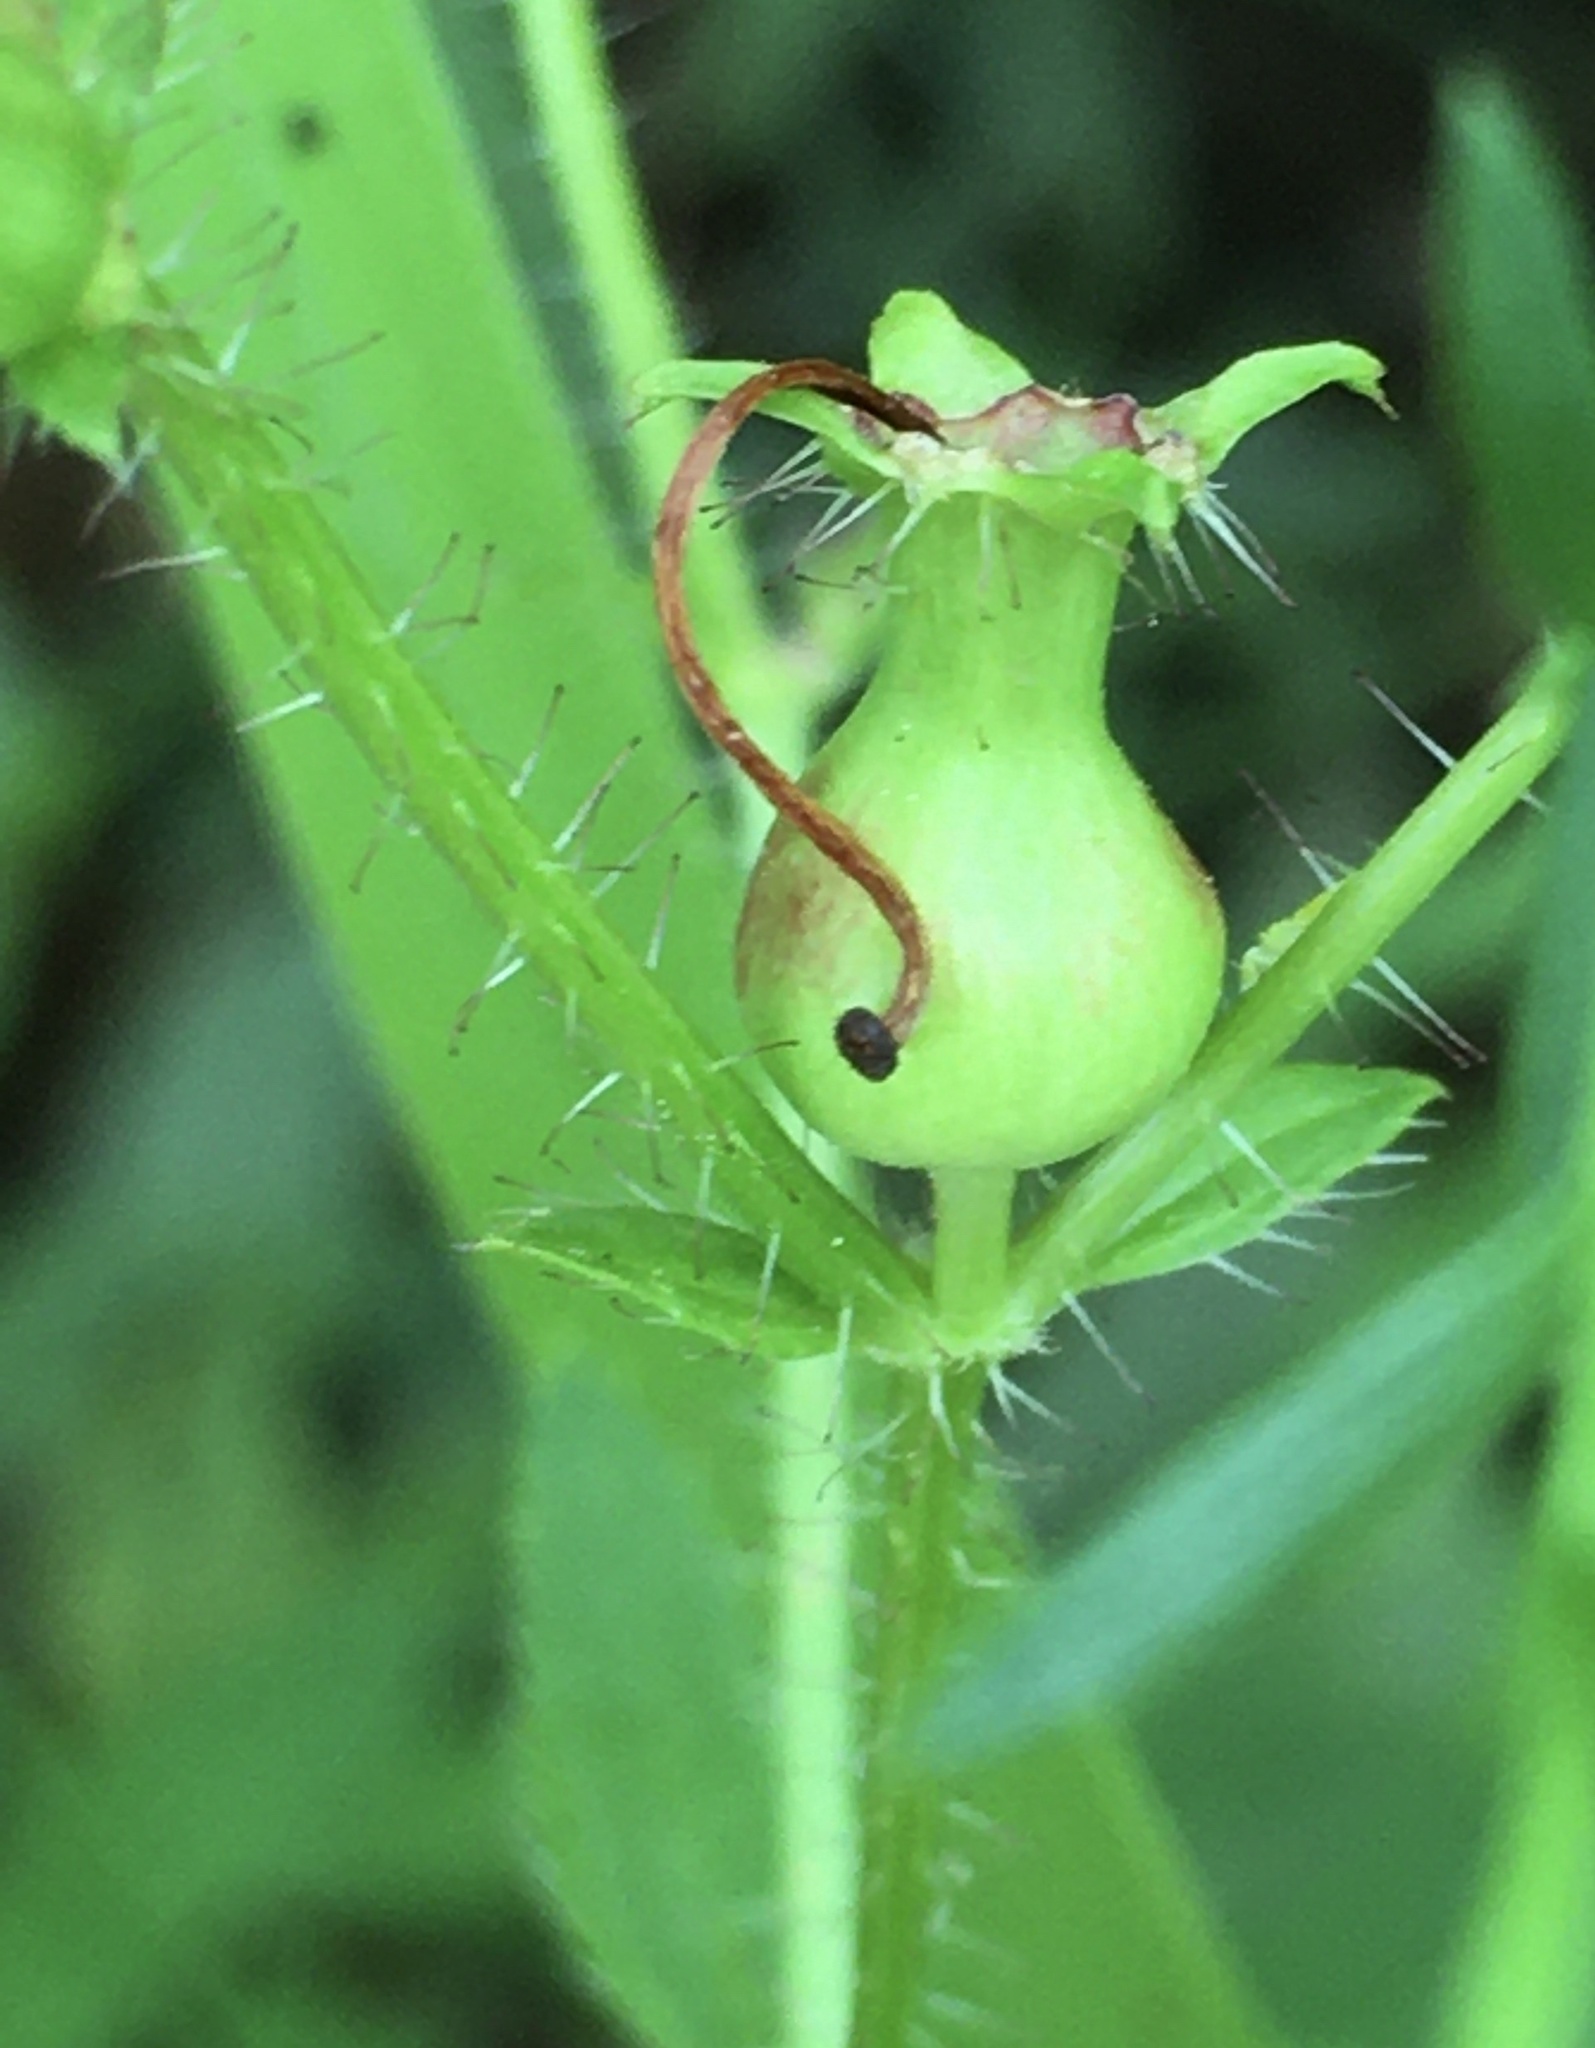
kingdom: Plantae
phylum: Tracheophyta
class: Magnoliopsida
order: Myrtales
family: Melastomataceae
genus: Rhexia
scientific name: Rhexia mariana
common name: Dull meadow-pitcher
